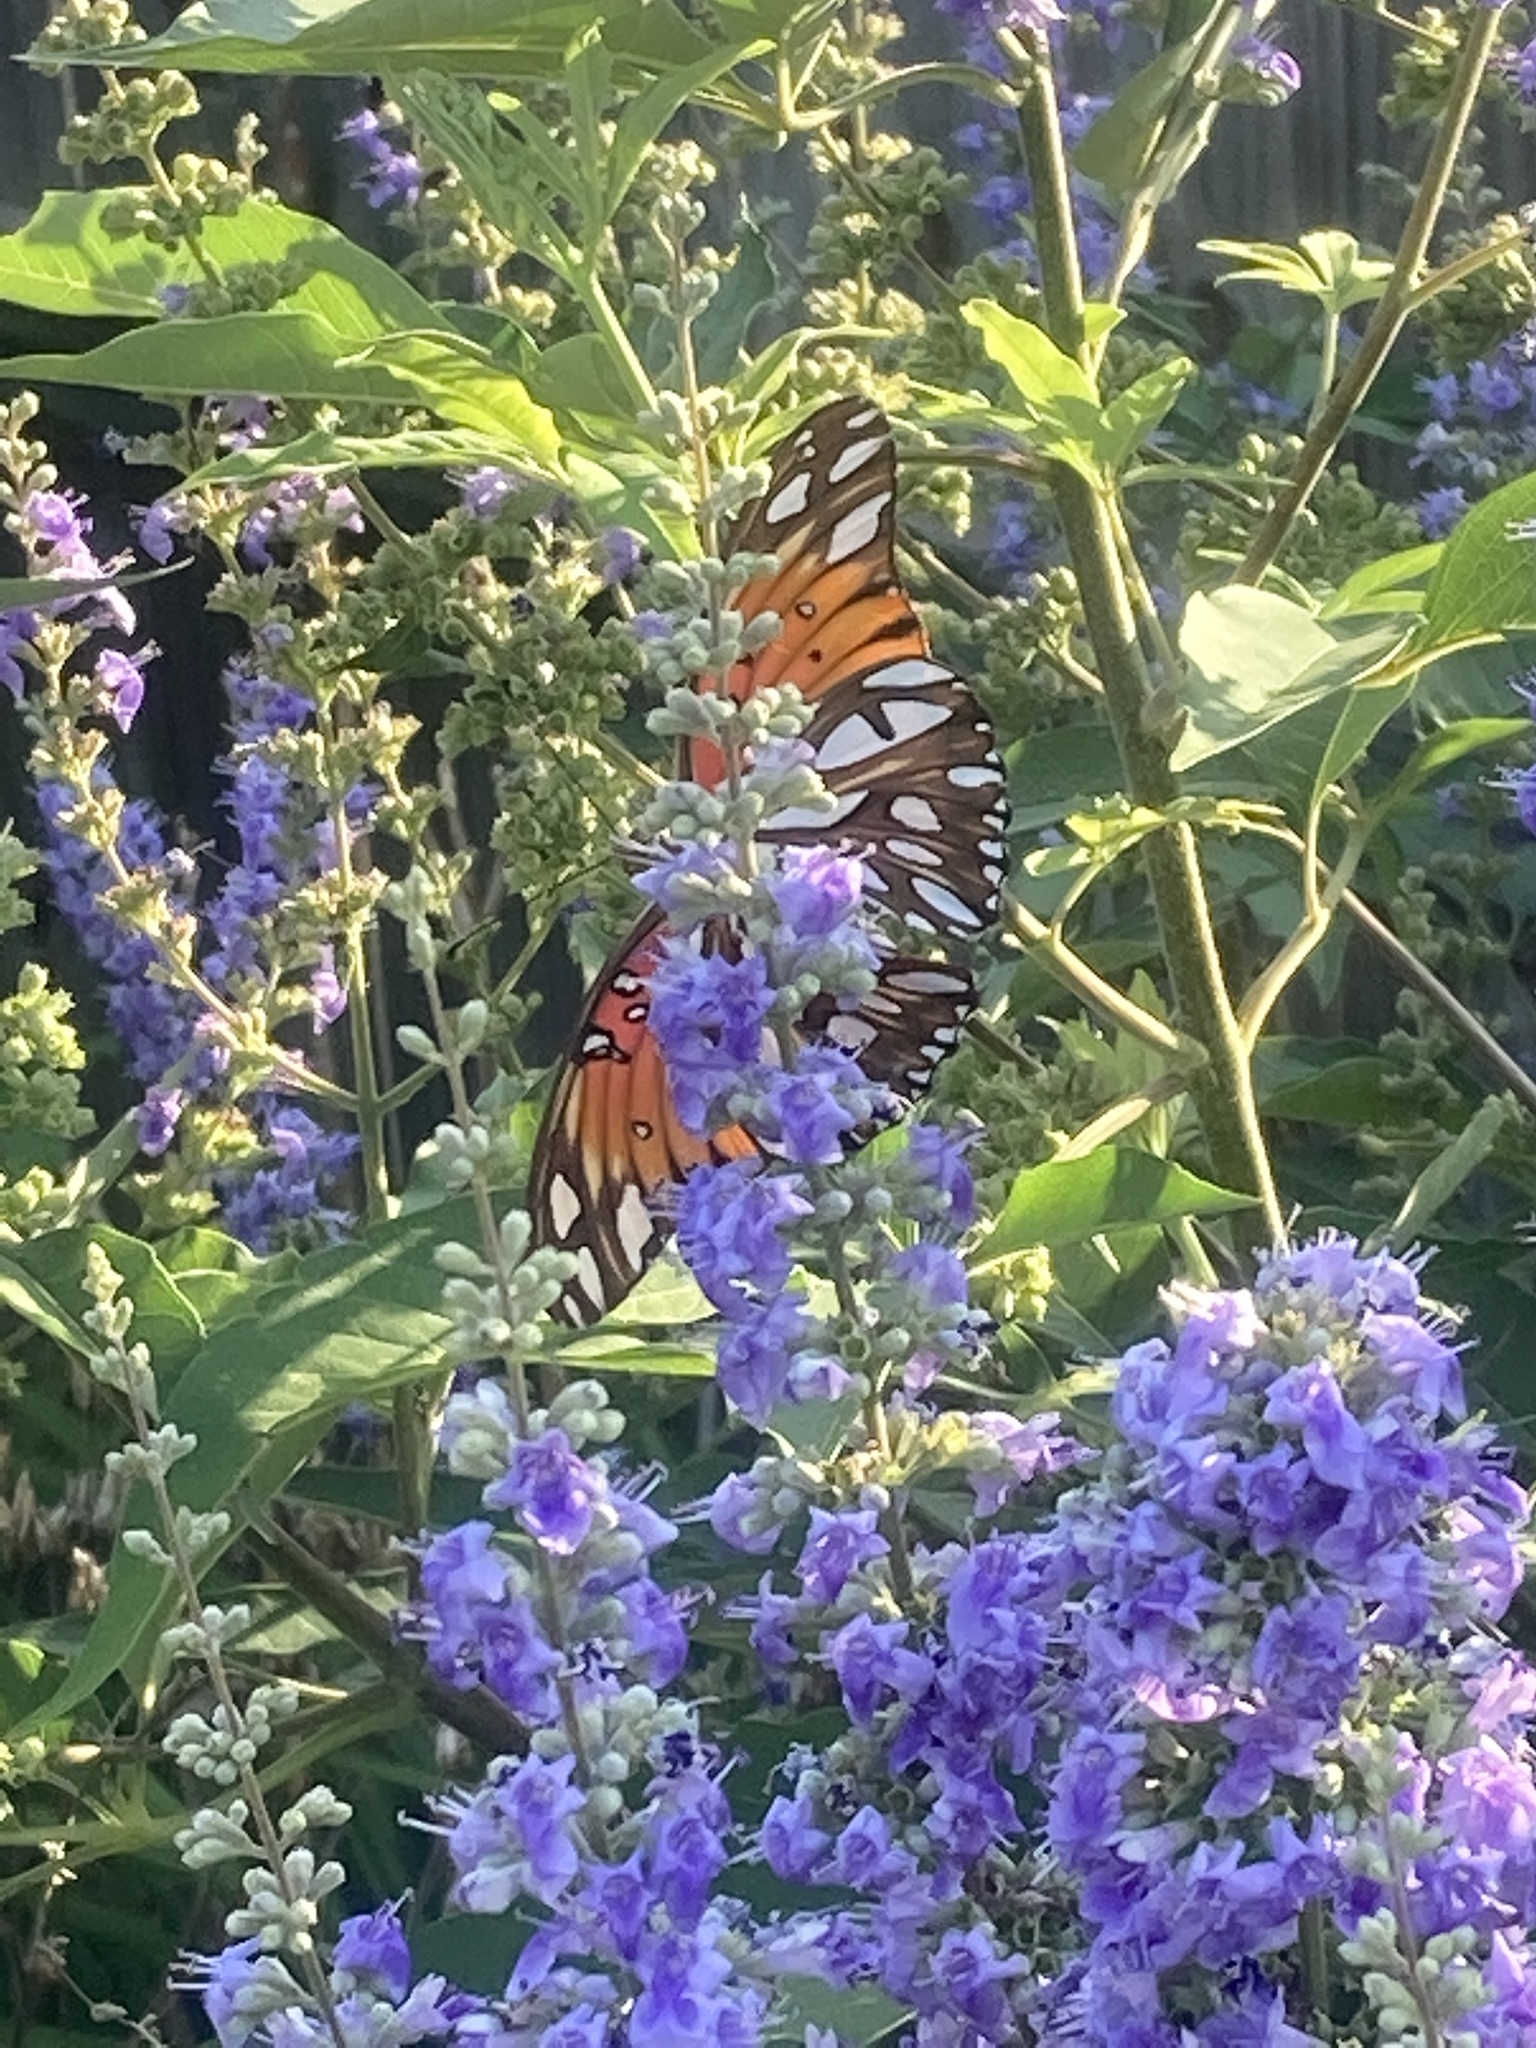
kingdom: Animalia
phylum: Arthropoda
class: Insecta
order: Lepidoptera
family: Nymphalidae
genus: Dione
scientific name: Dione vanillae
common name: Gulf fritillary
